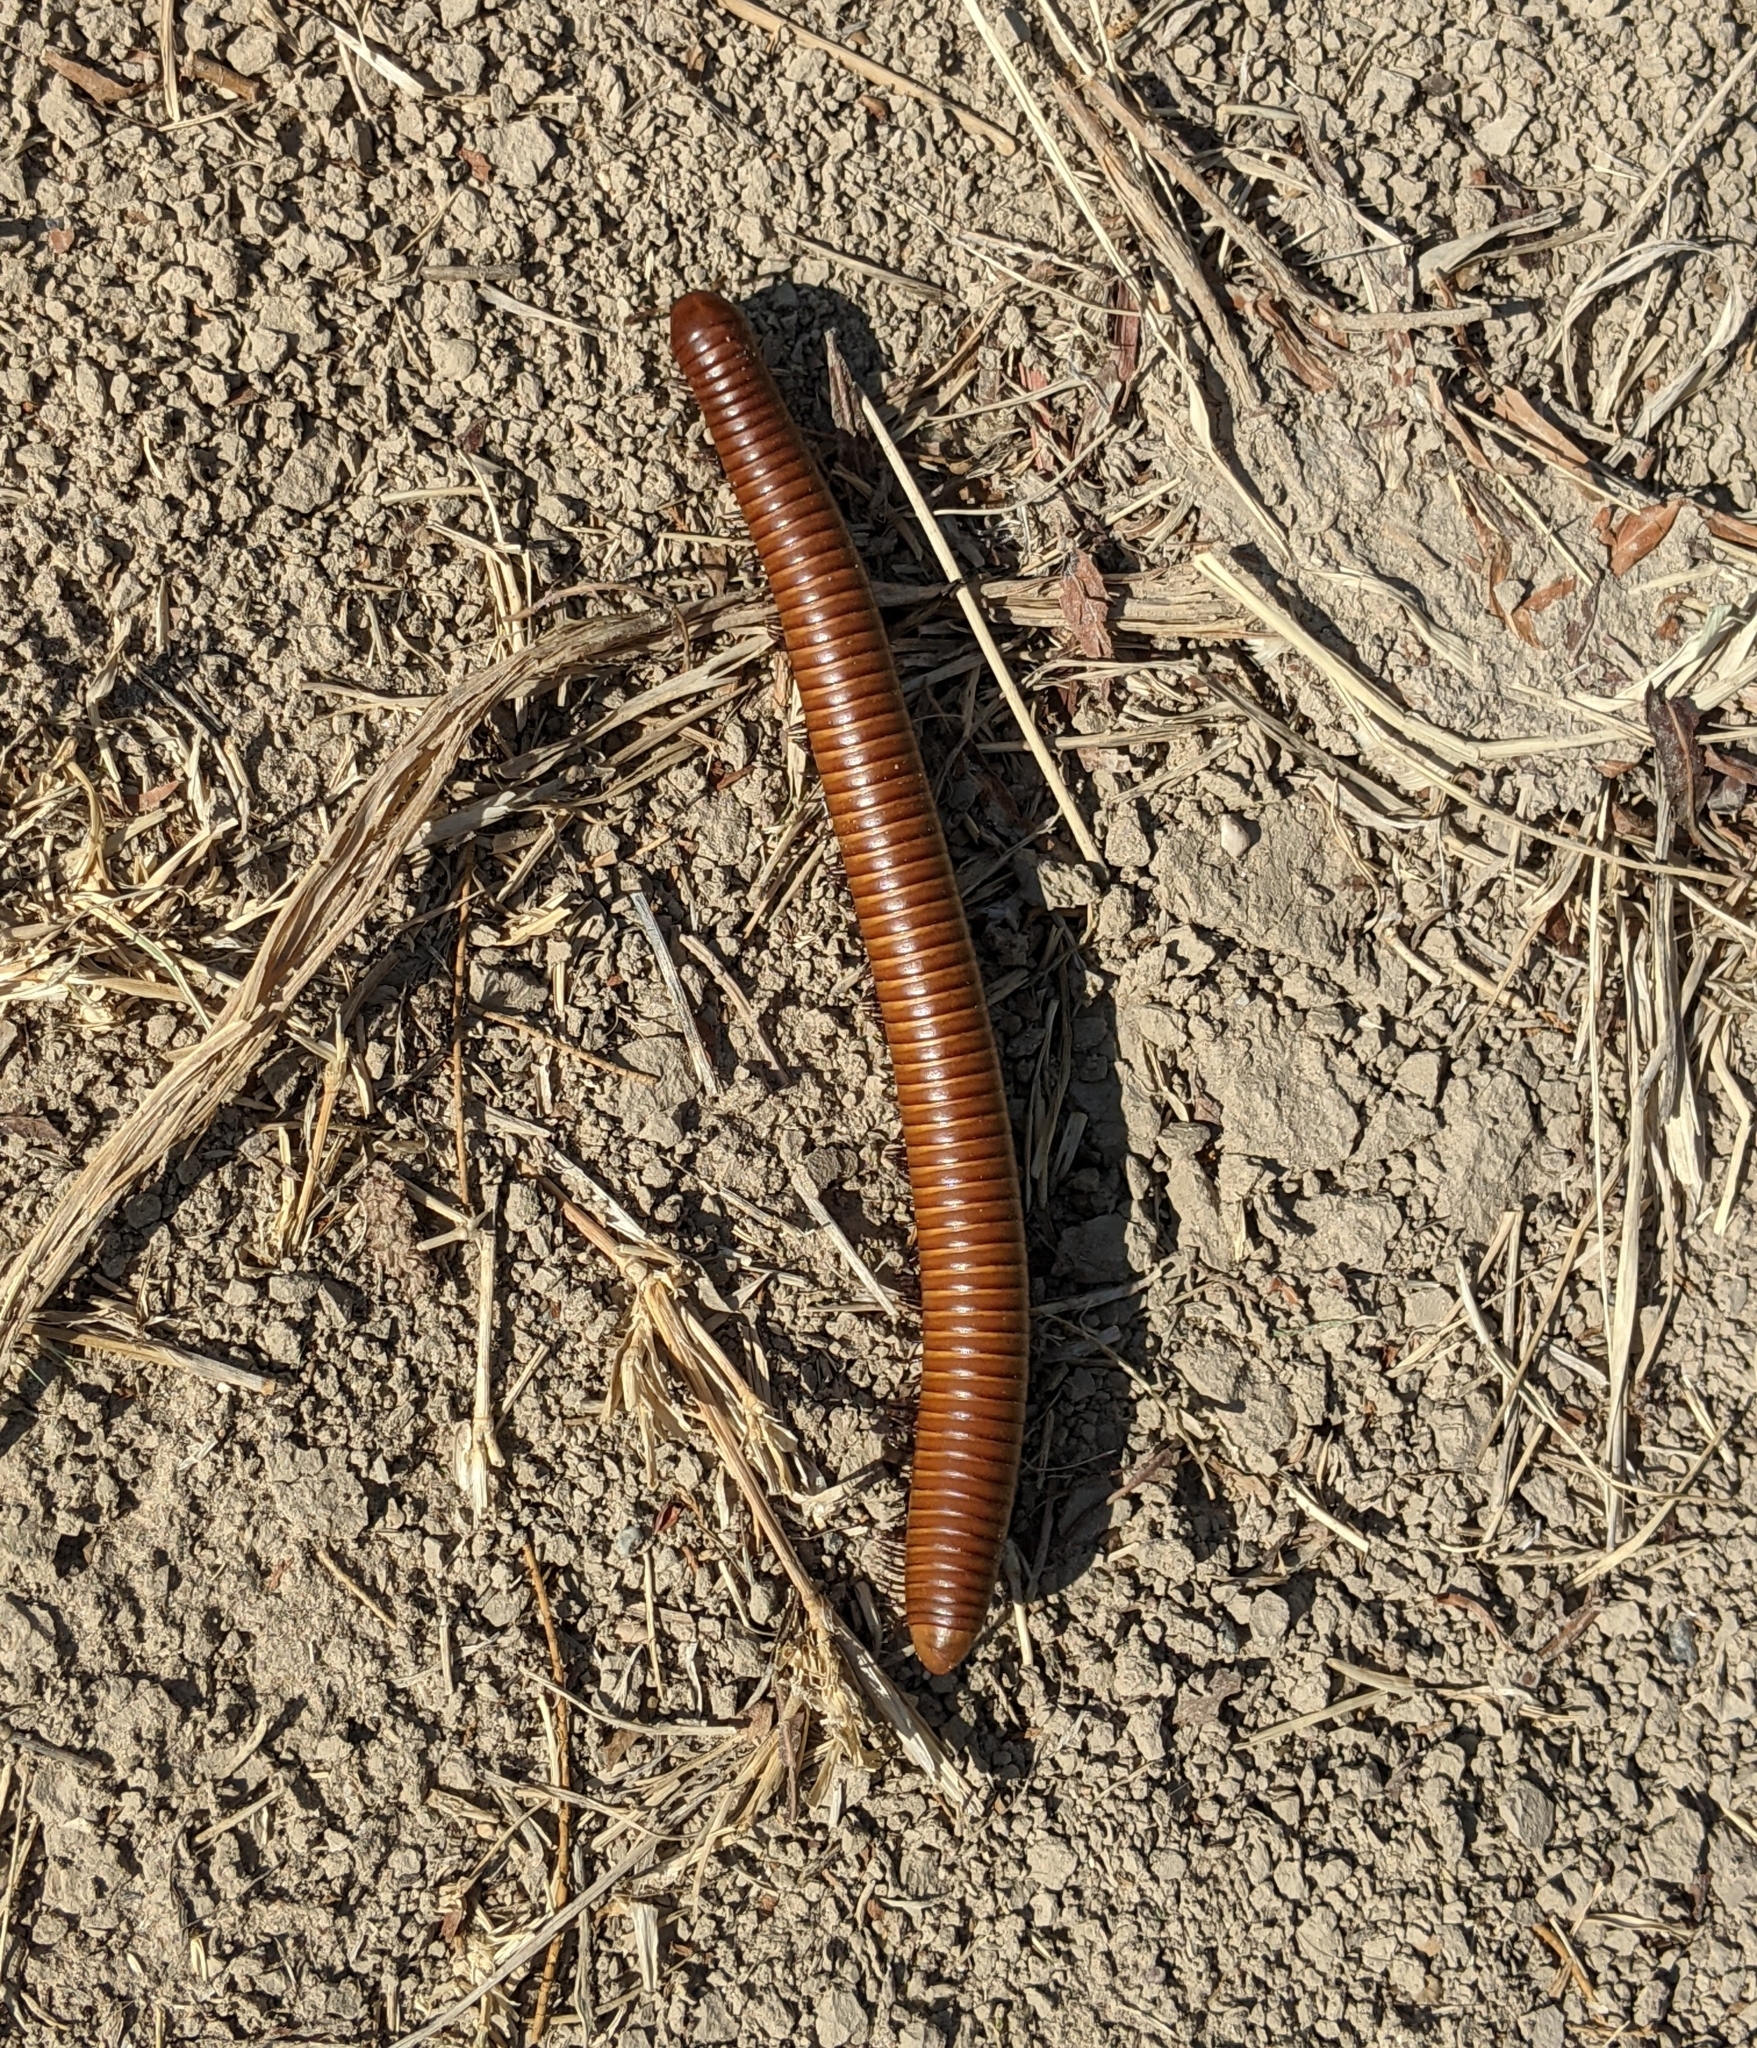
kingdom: Animalia
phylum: Arthropoda
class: Diplopoda
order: Spirostreptida
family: Spirostreptidae
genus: Orthoporus
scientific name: Orthoporus ornatus
